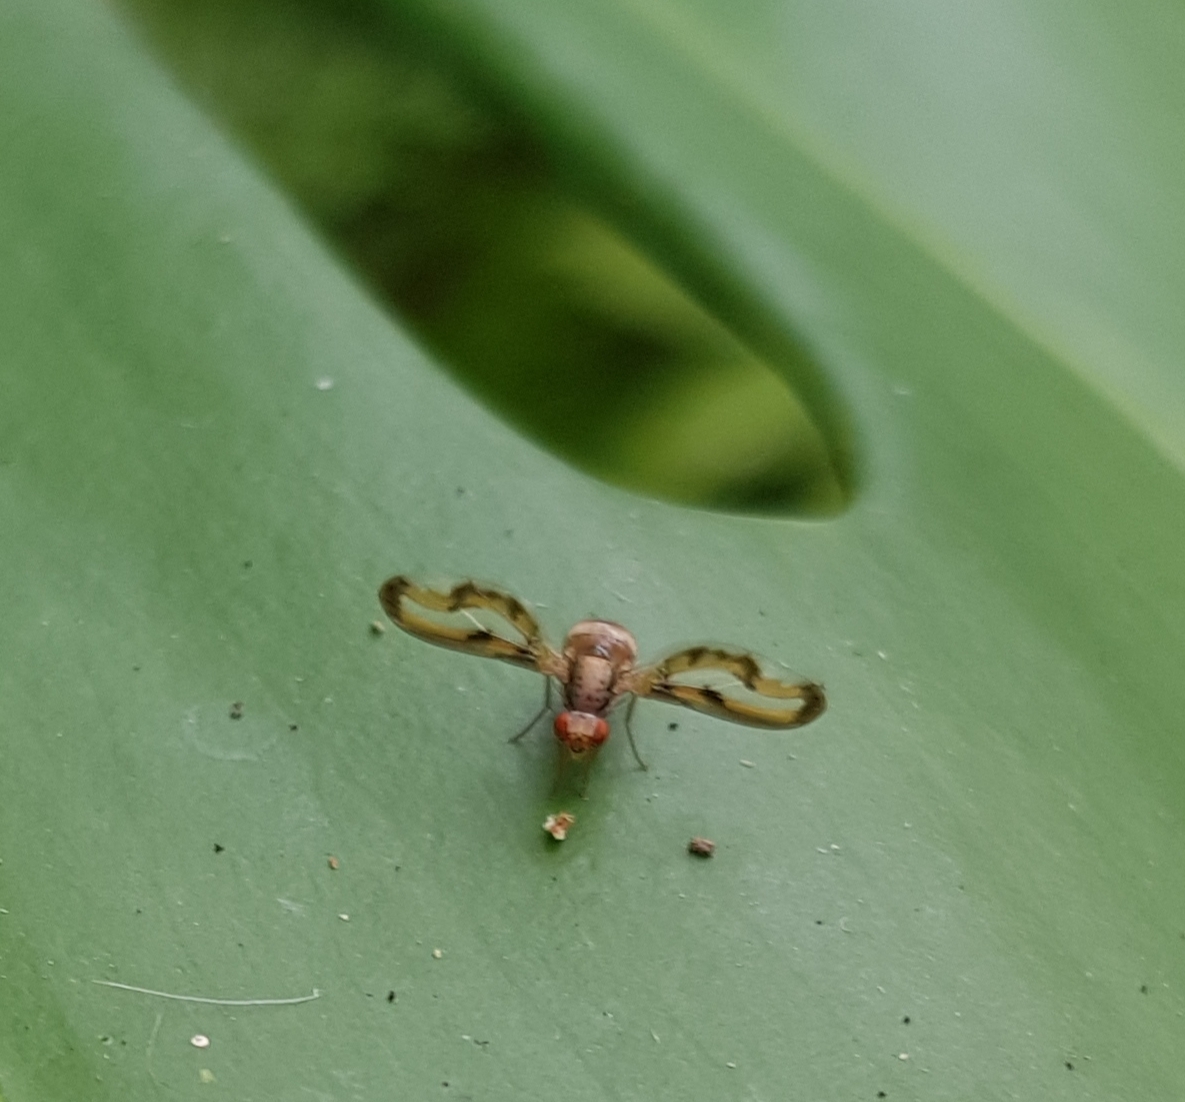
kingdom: Animalia
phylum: Arthropoda
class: Insecta
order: Diptera
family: Pallopteridae
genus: Toxonevra
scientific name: Toxonevra muliebris
